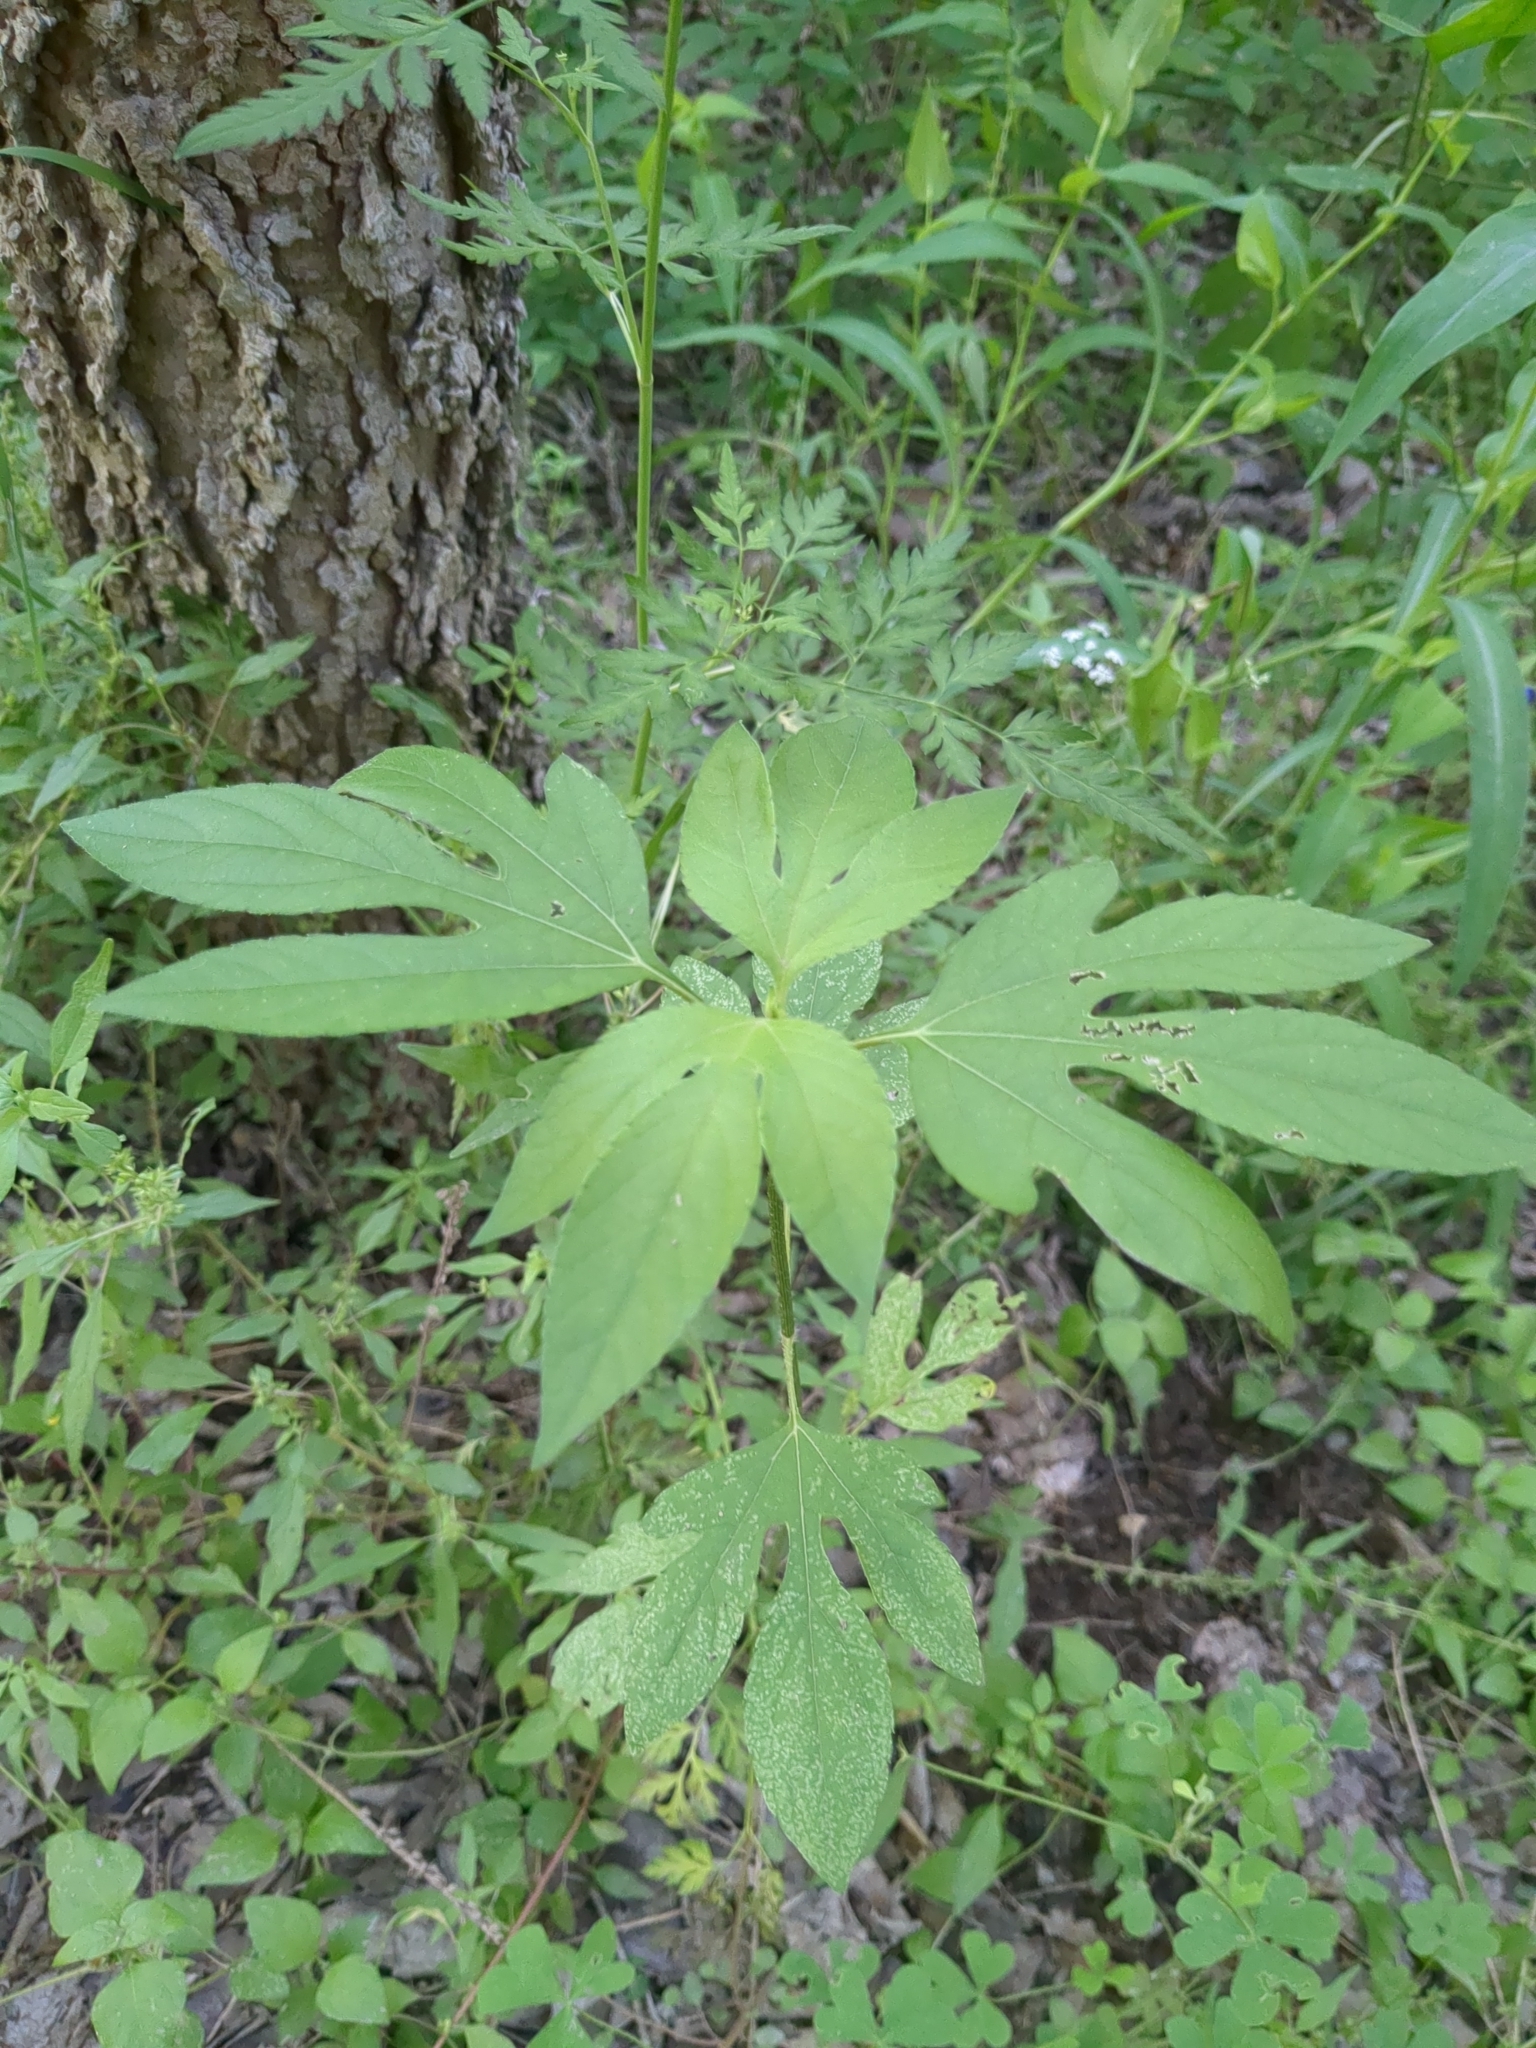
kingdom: Plantae
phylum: Tracheophyta
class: Magnoliopsida
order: Asterales
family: Asteraceae
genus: Ambrosia
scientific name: Ambrosia trifida
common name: Giant ragweed
